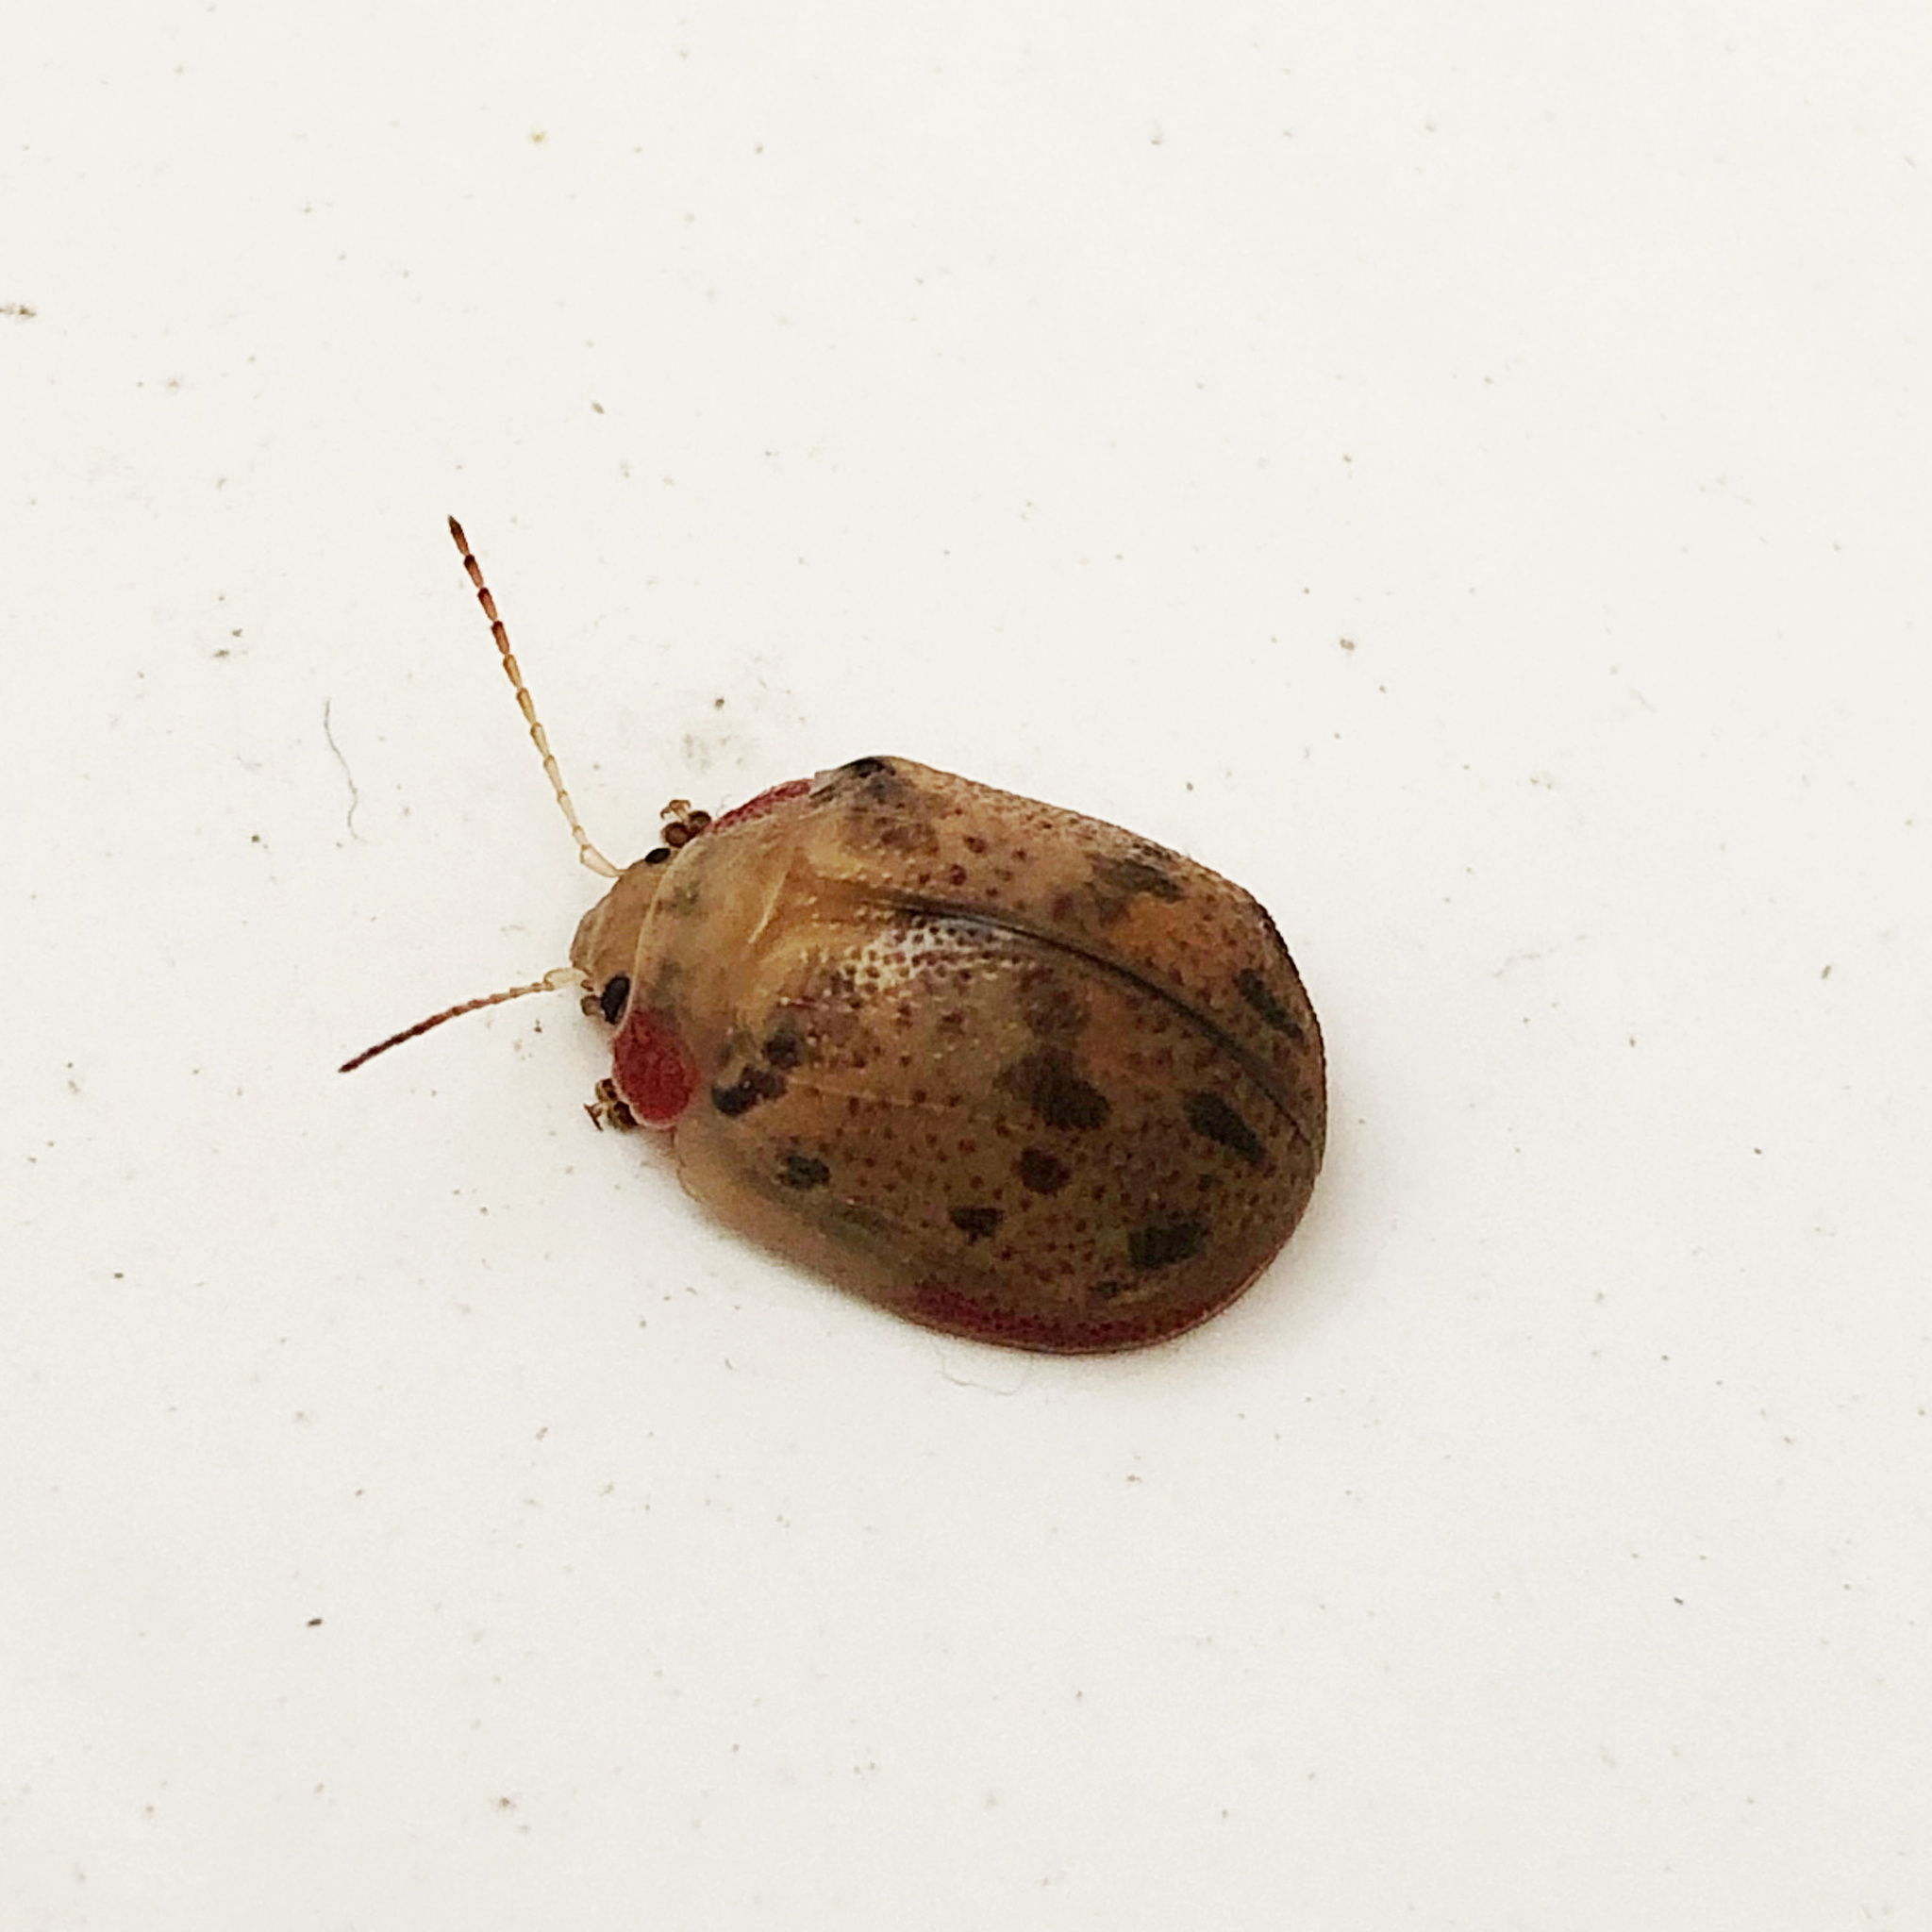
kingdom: Animalia
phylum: Arthropoda
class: Insecta
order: Coleoptera
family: Chrysomelidae
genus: Paropsis
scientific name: Paropsis charybdis
